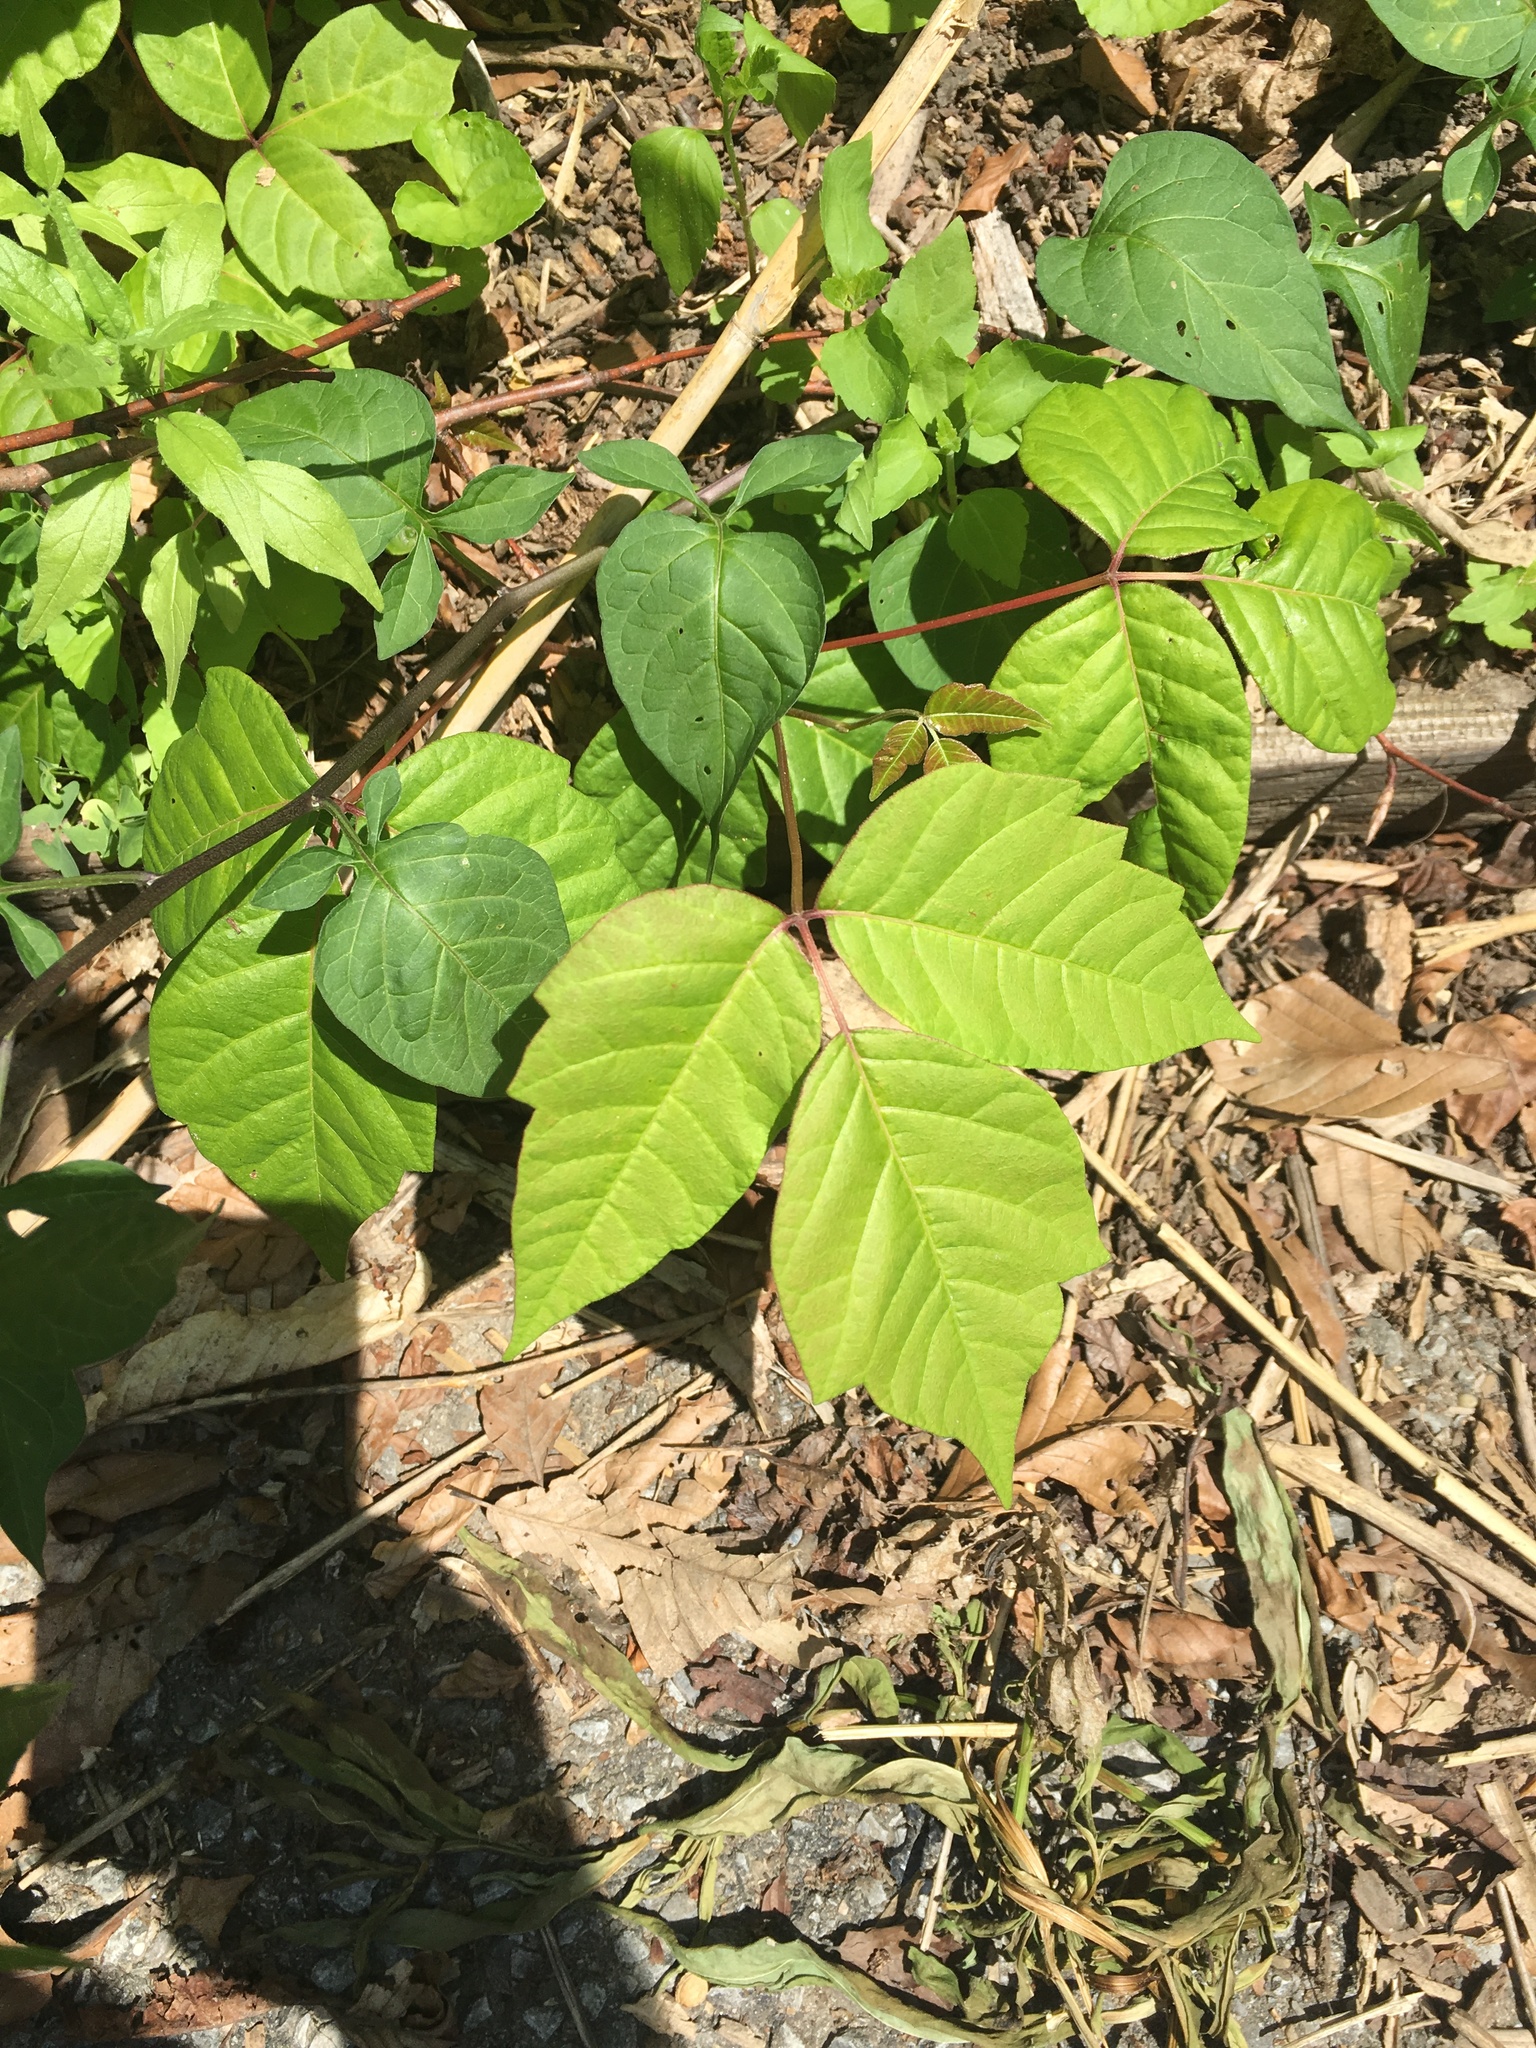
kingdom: Plantae
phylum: Tracheophyta
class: Magnoliopsida
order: Sapindales
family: Anacardiaceae
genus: Toxicodendron
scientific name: Toxicodendron radicans
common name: Poison ivy
